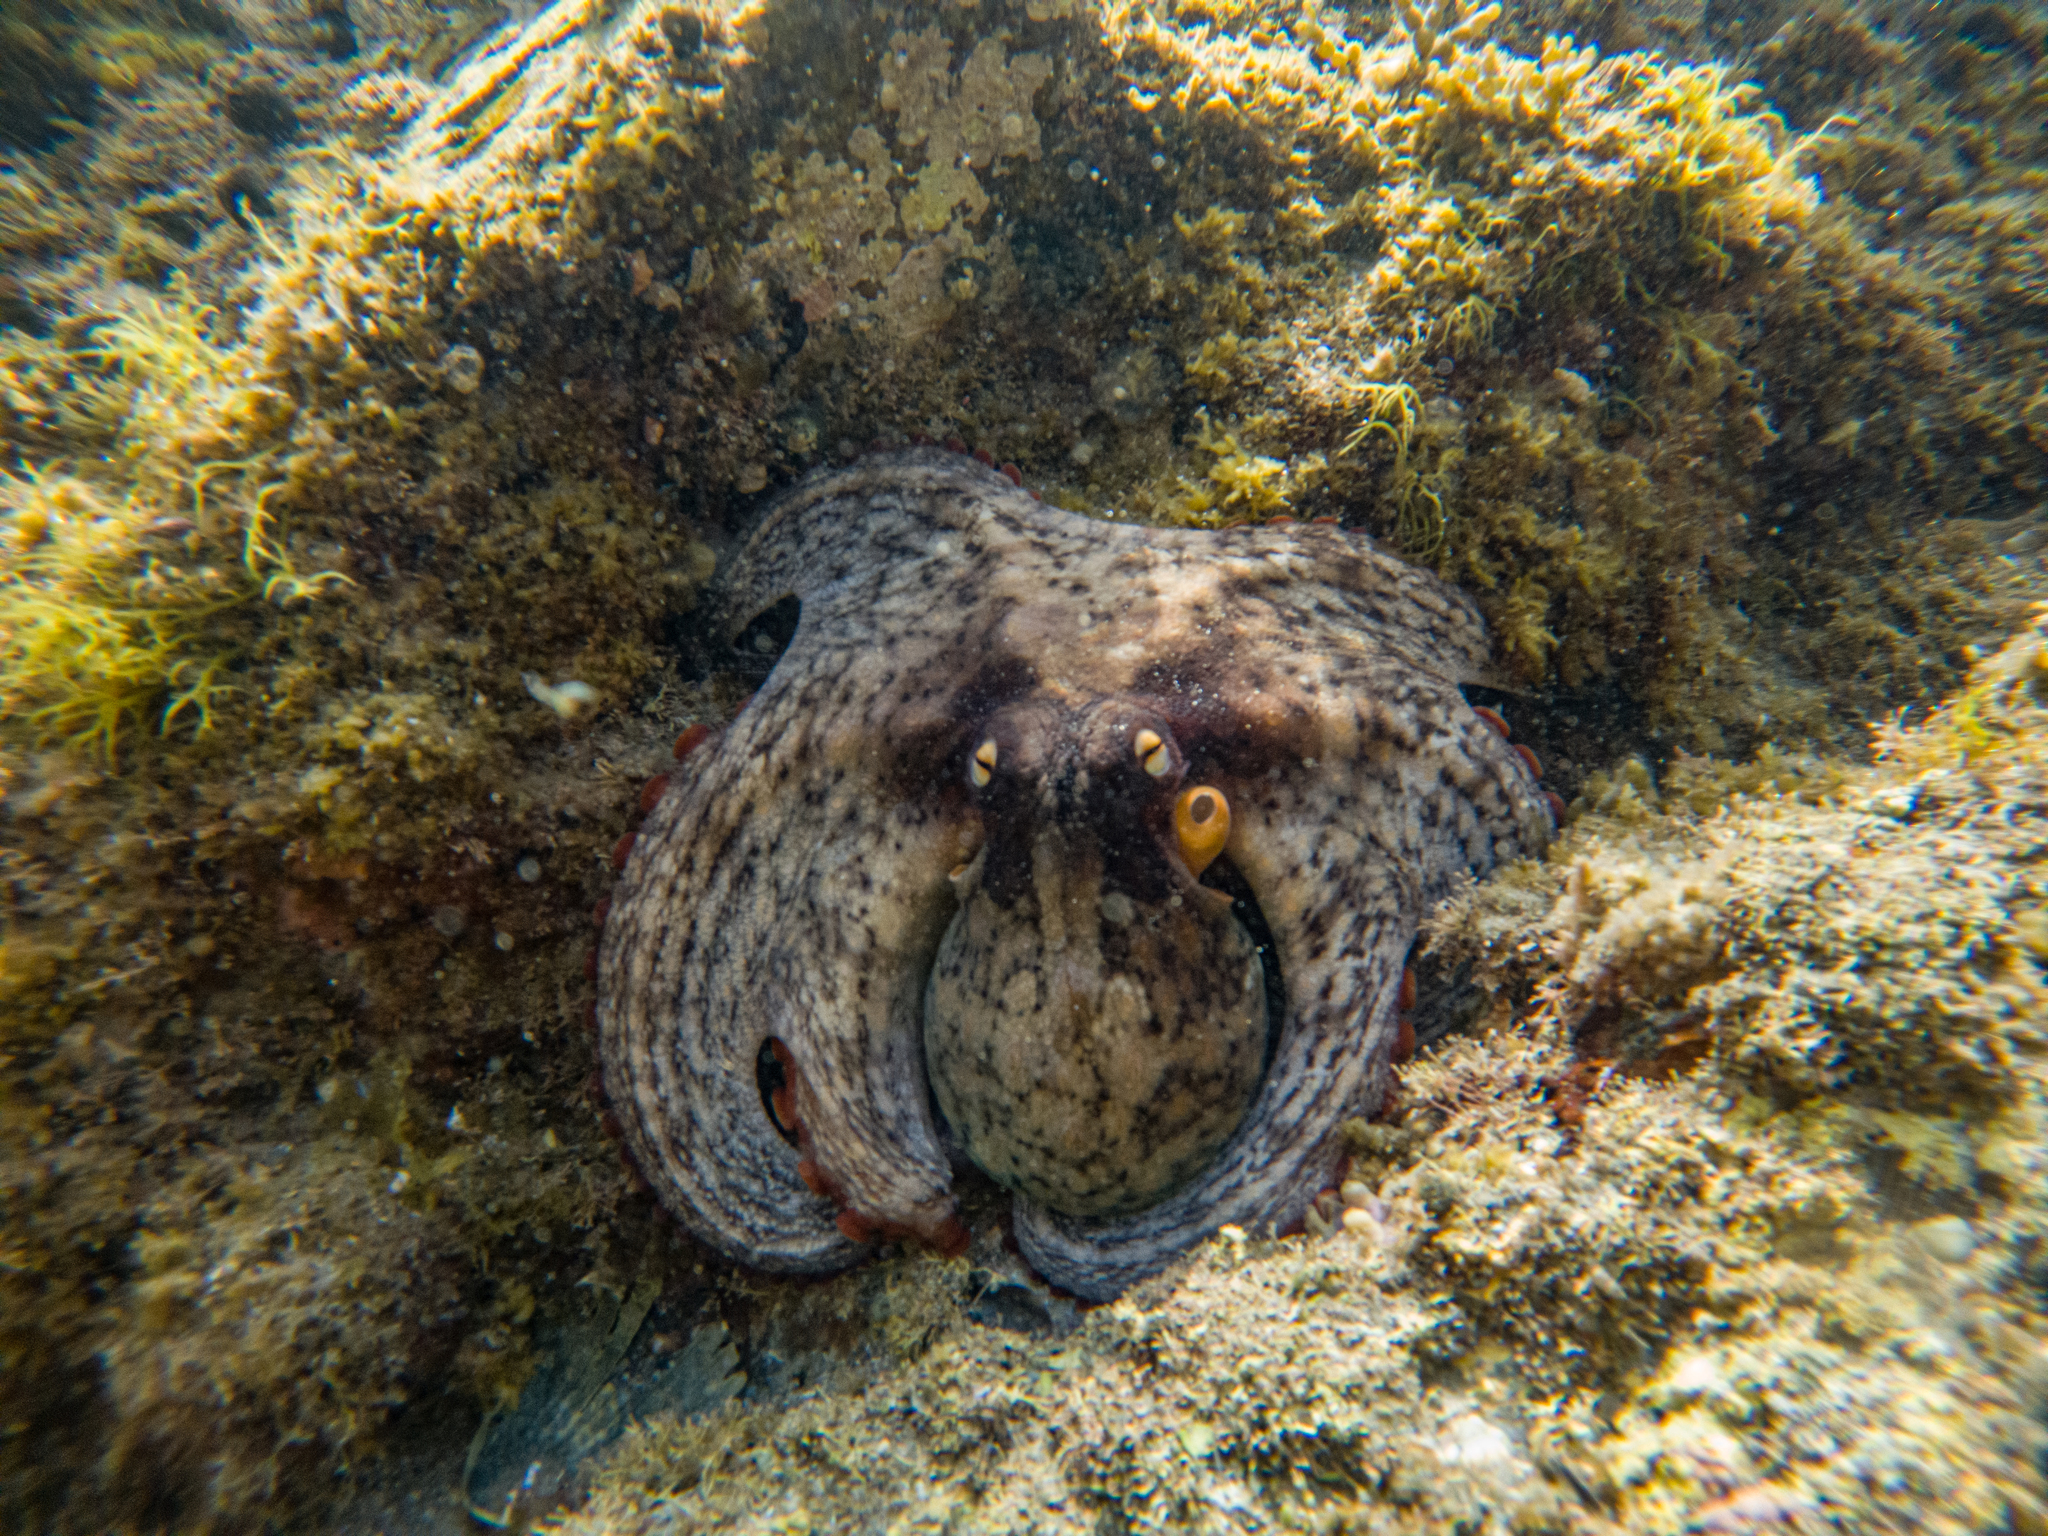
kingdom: Animalia
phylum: Mollusca
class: Cephalopoda
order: Octopoda
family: Octopodidae
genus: Octopus
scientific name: Octopus tetricus
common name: Sydney octopus
